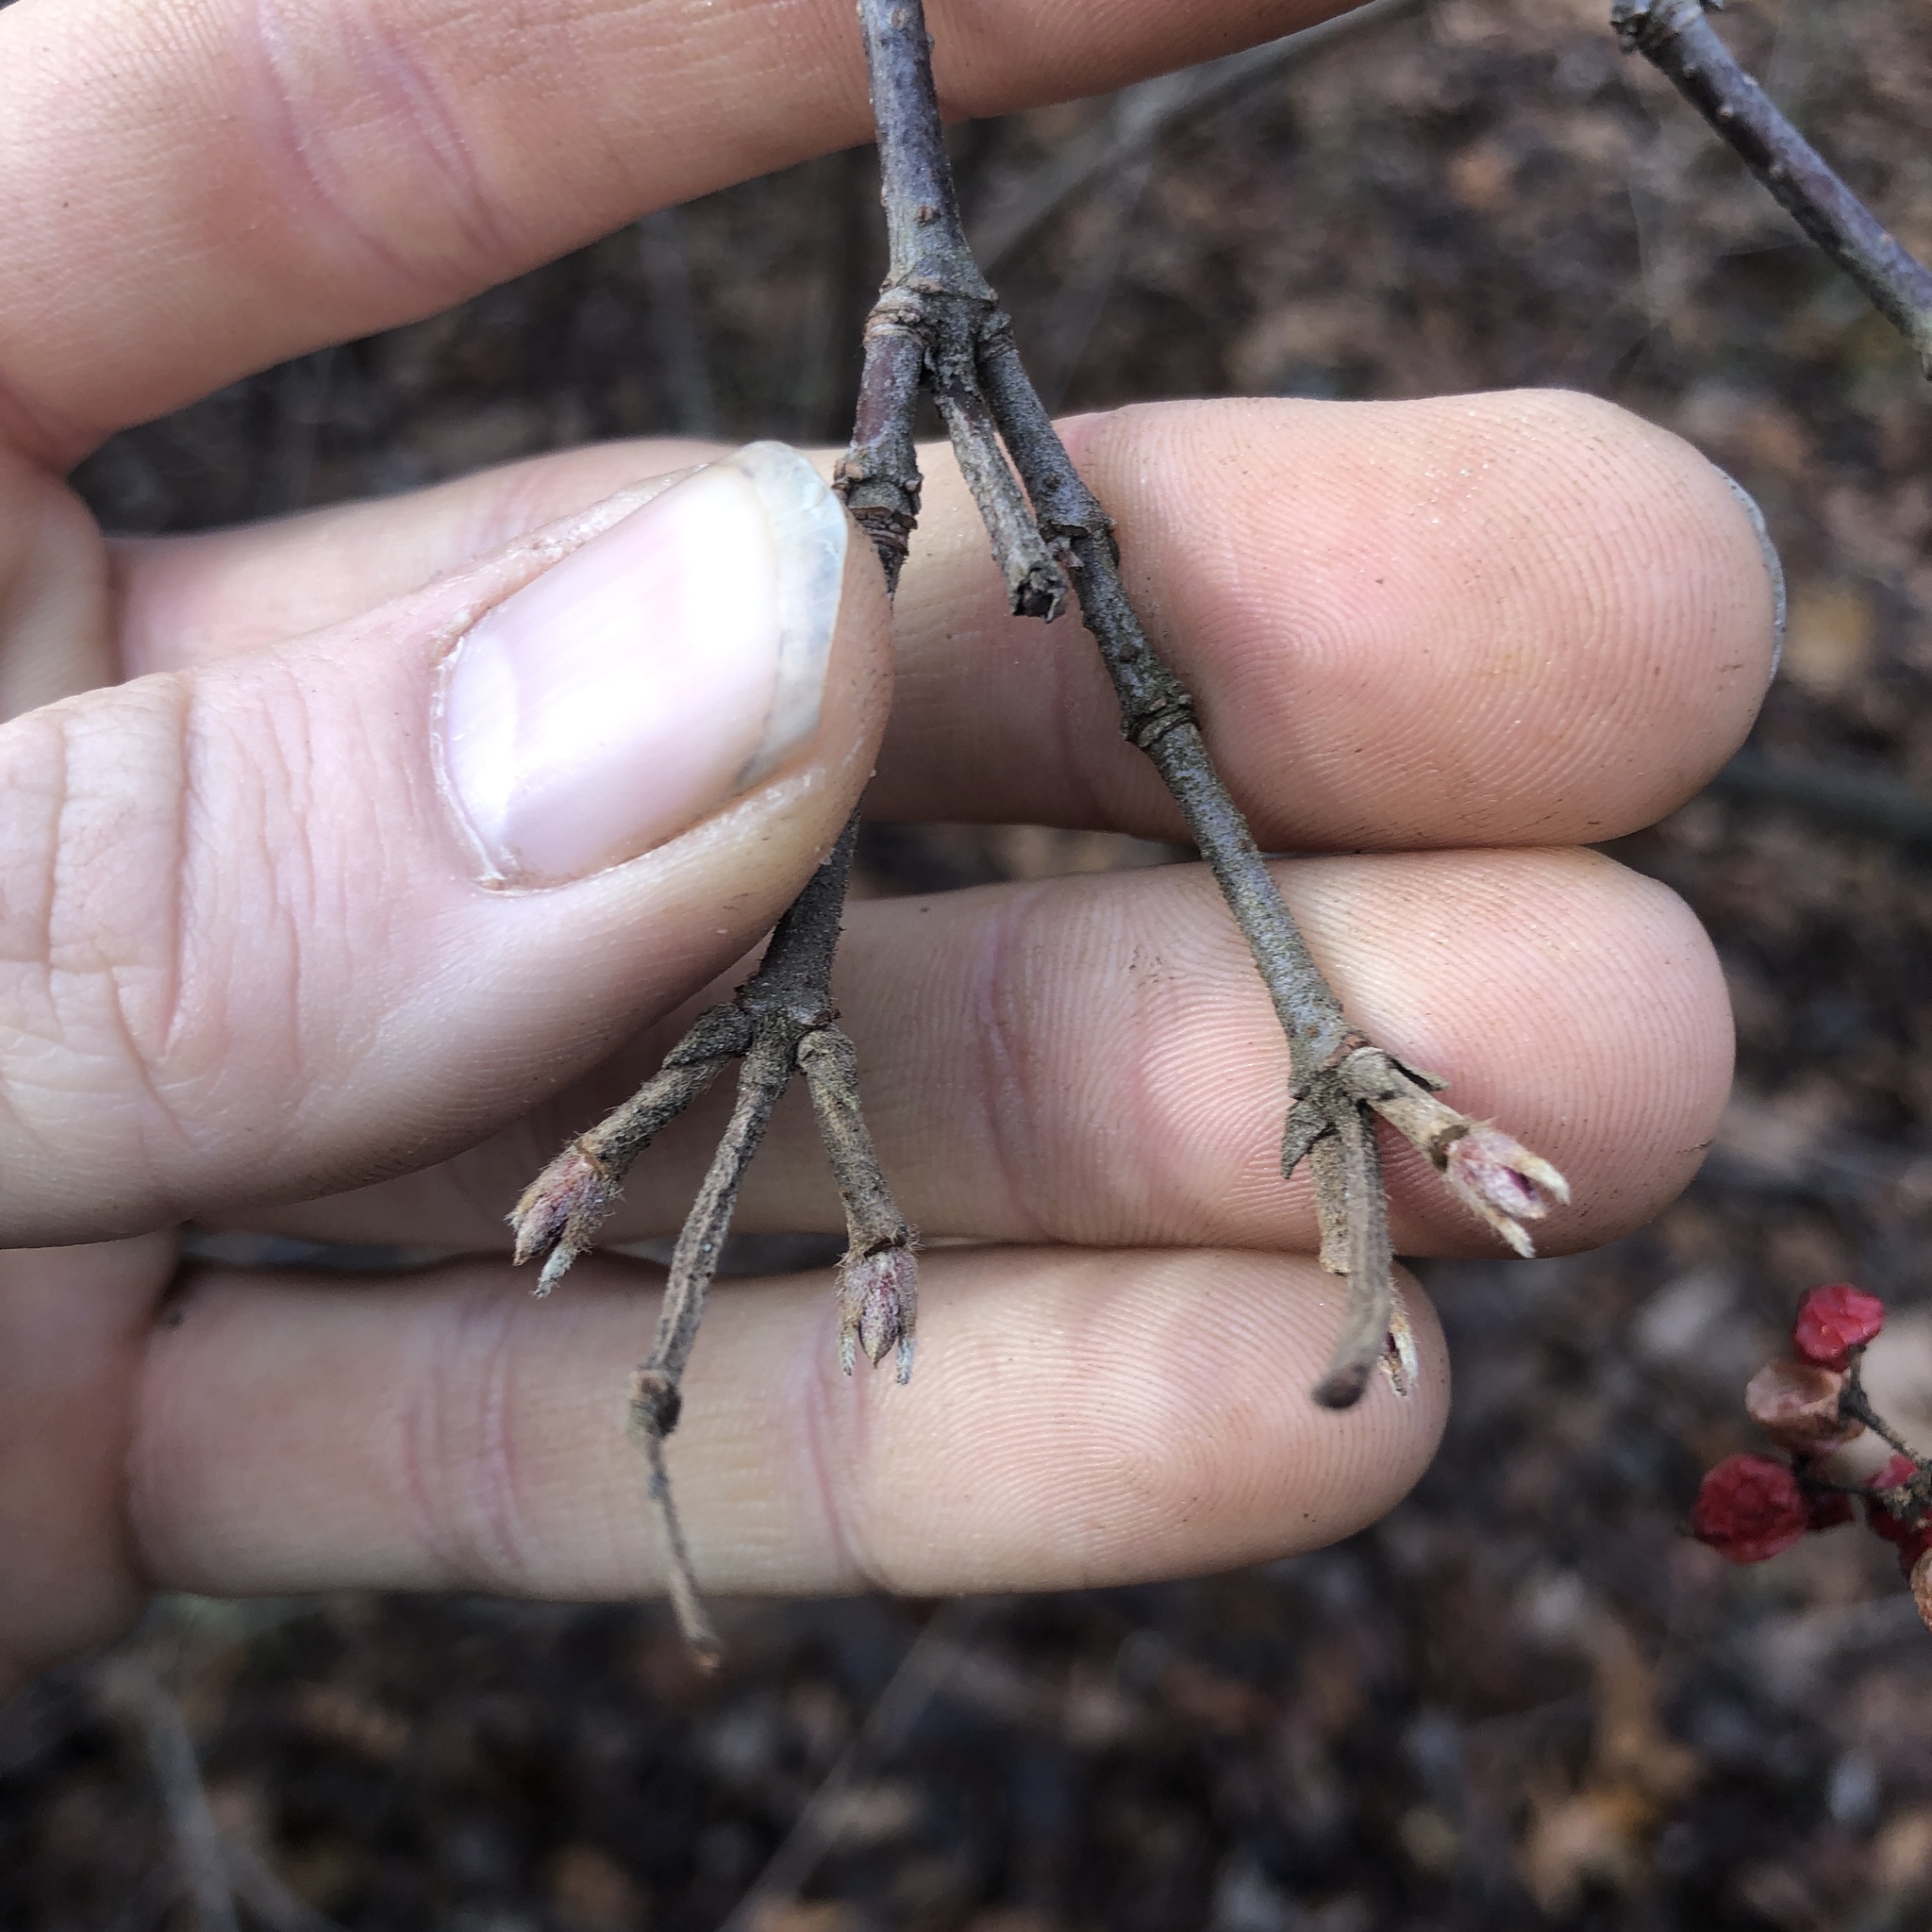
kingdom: Plantae
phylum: Tracheophyta
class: Magnoliopsida
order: Dipsacales
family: Viburnaceae
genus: Viburnum
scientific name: Viburnum dilatatum
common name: Linden arrowwood
